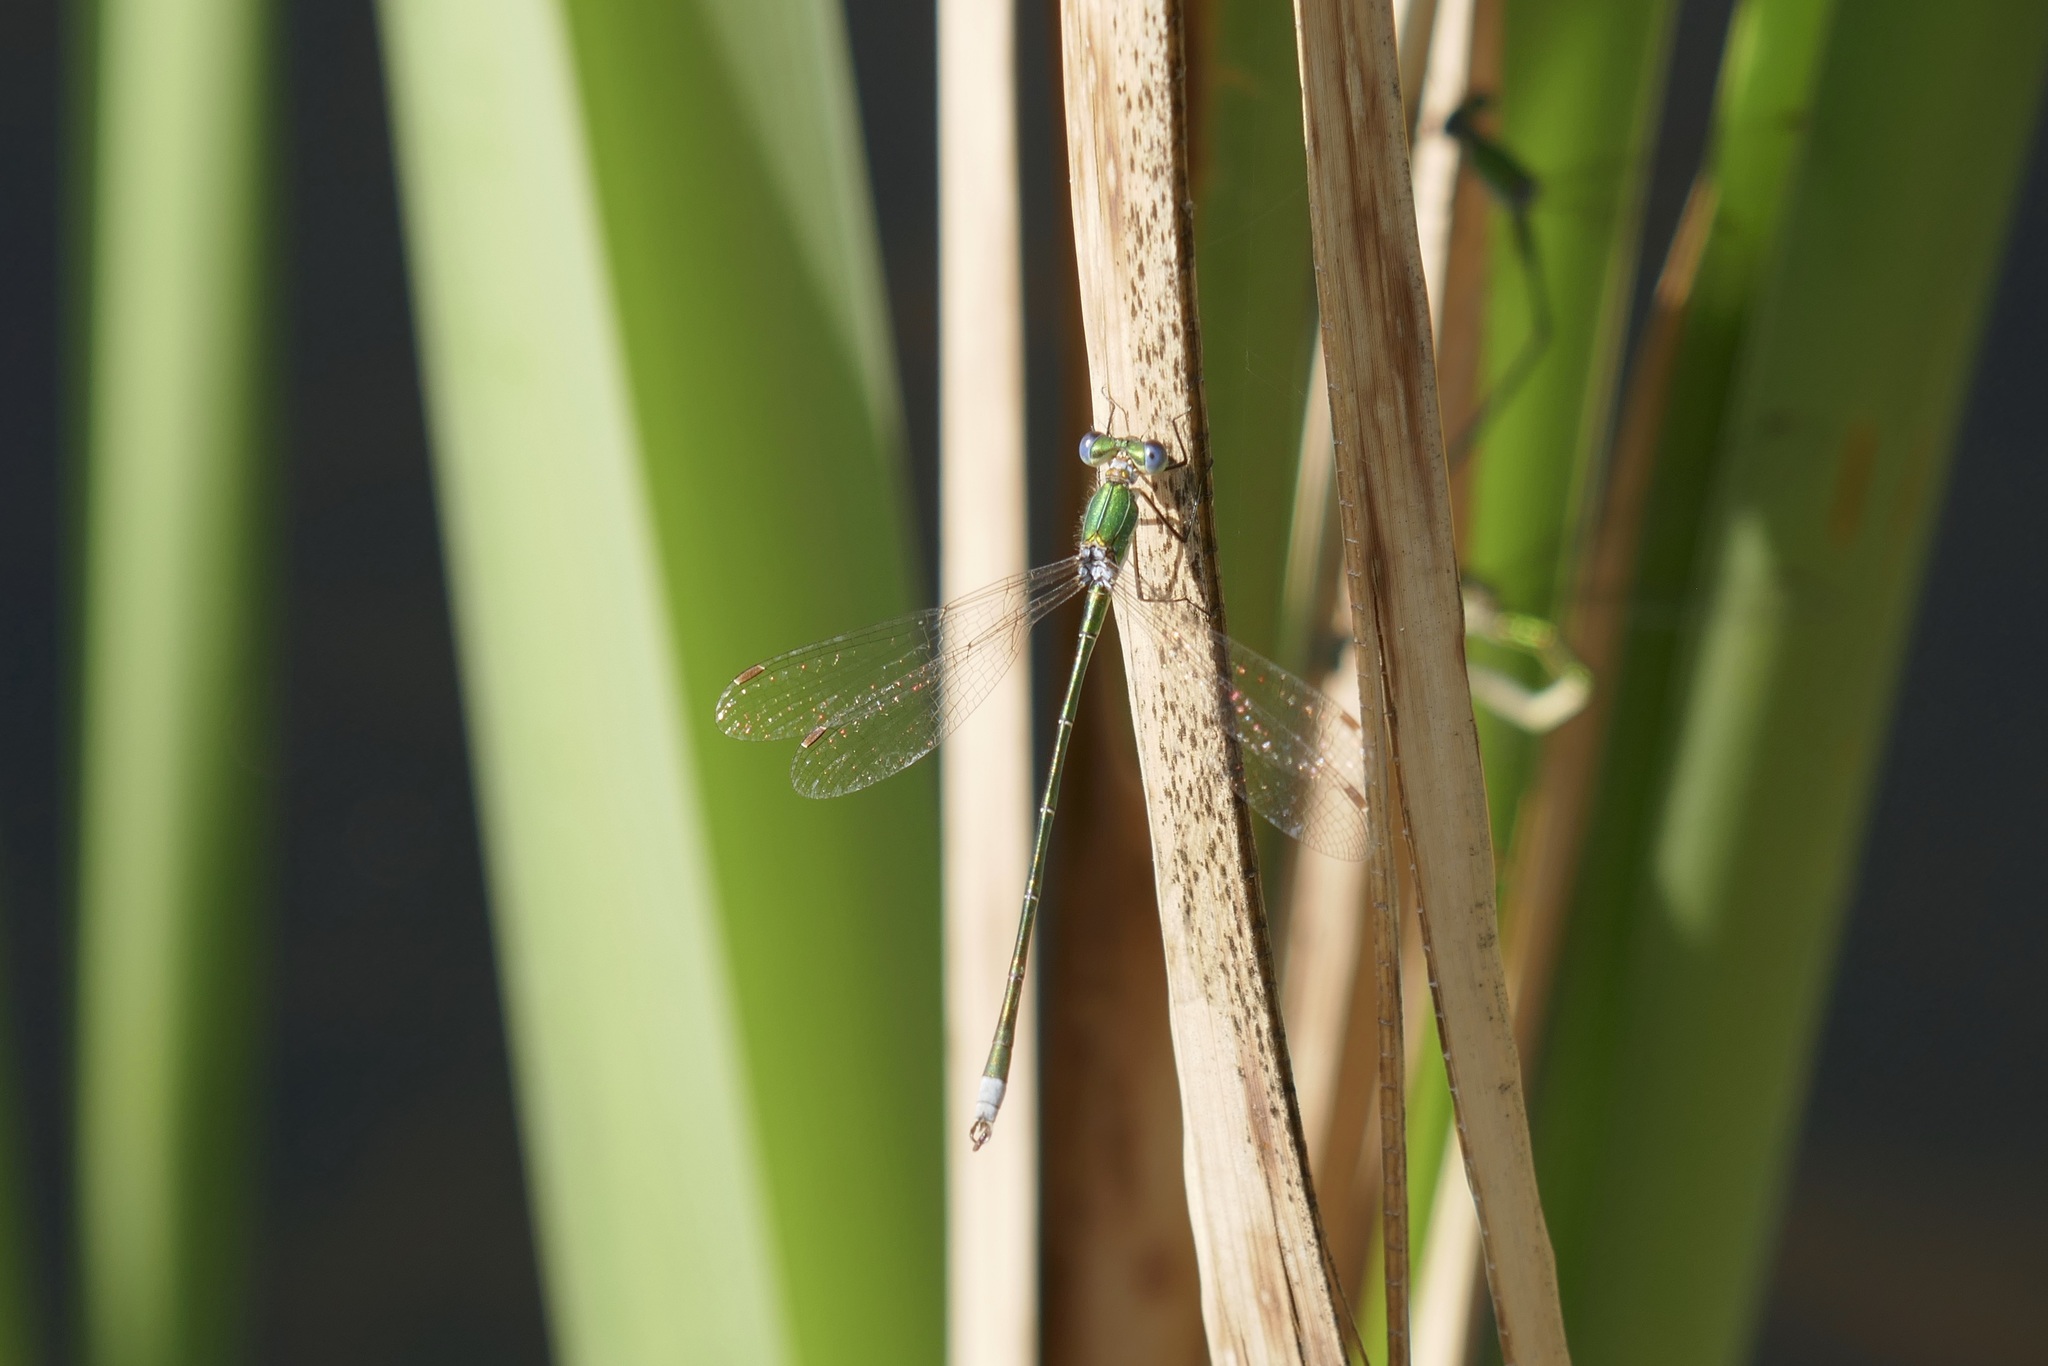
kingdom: Animalia
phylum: Arthropoda
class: Insecta
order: Odonata
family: Lestidae
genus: Lestes
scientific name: Lestes virens
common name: Small emerald spreadwing
